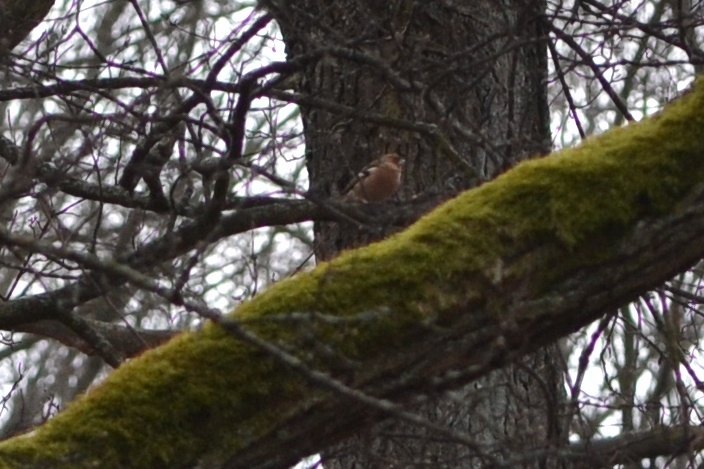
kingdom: Animalia
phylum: Chordata
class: Aves
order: Passeriformes
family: Fringillidae
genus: Fringilla
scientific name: Fringilla coelebs
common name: Common chaffinch
